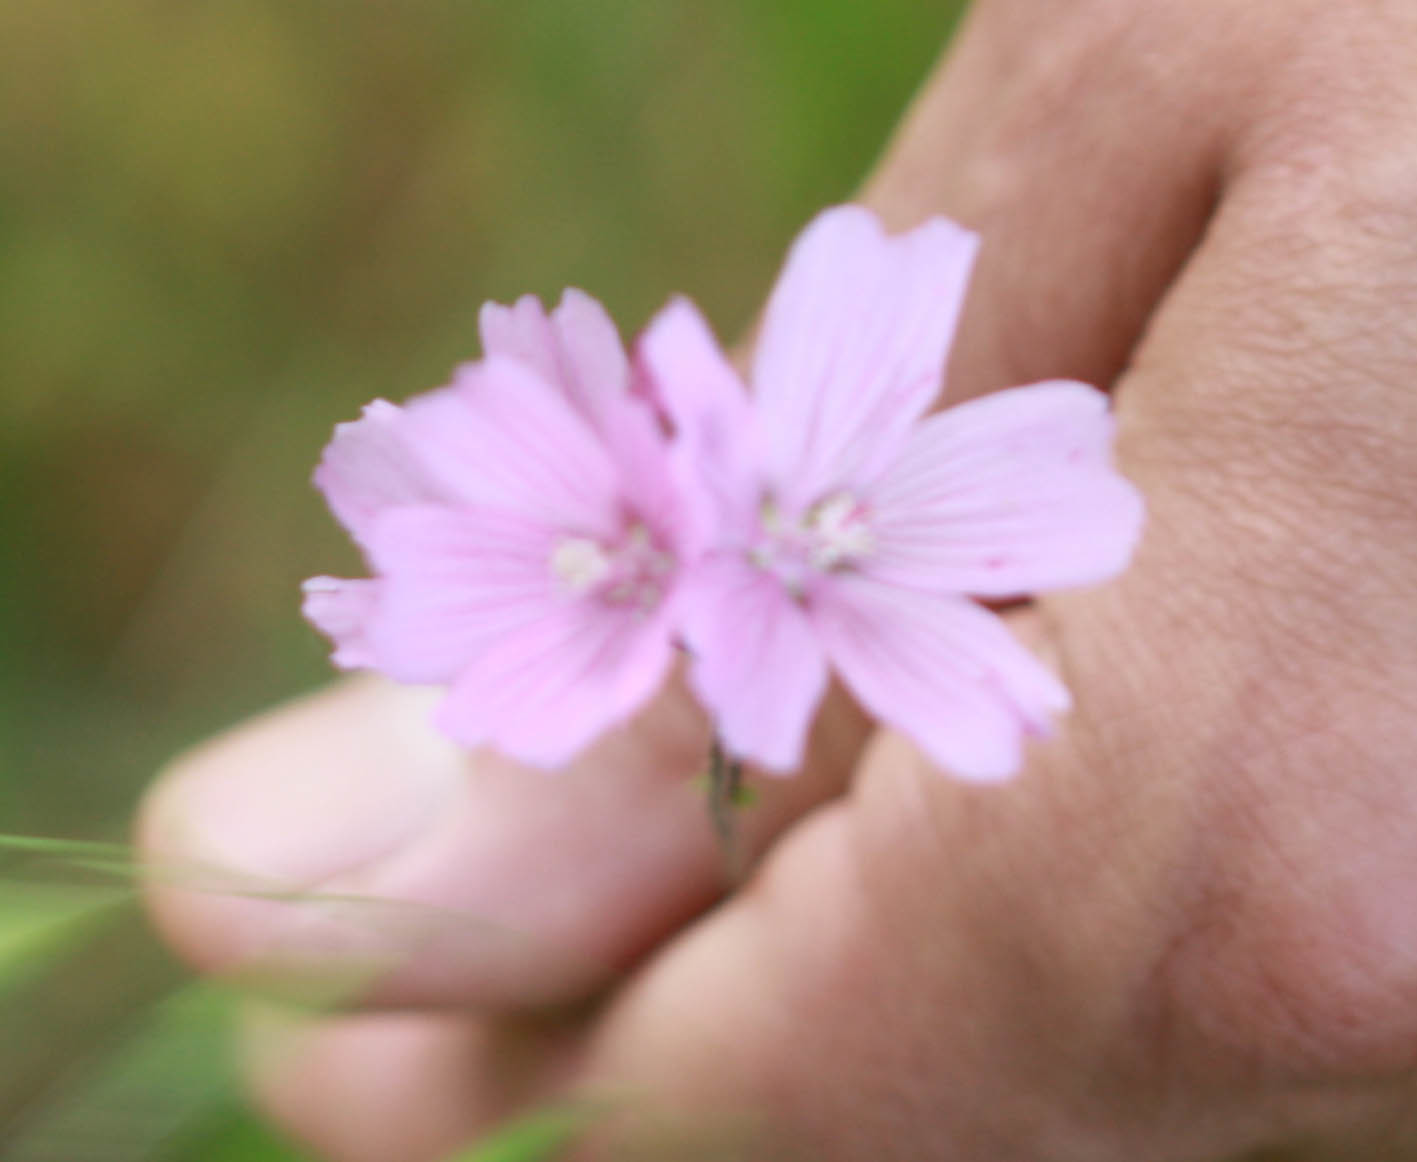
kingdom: Plantae
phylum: Tracheophyta
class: Magnoliopsida
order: Malvales
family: Malvaceae
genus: Sidalcea
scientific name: Sidalcea malviflora
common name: Greek mallow
